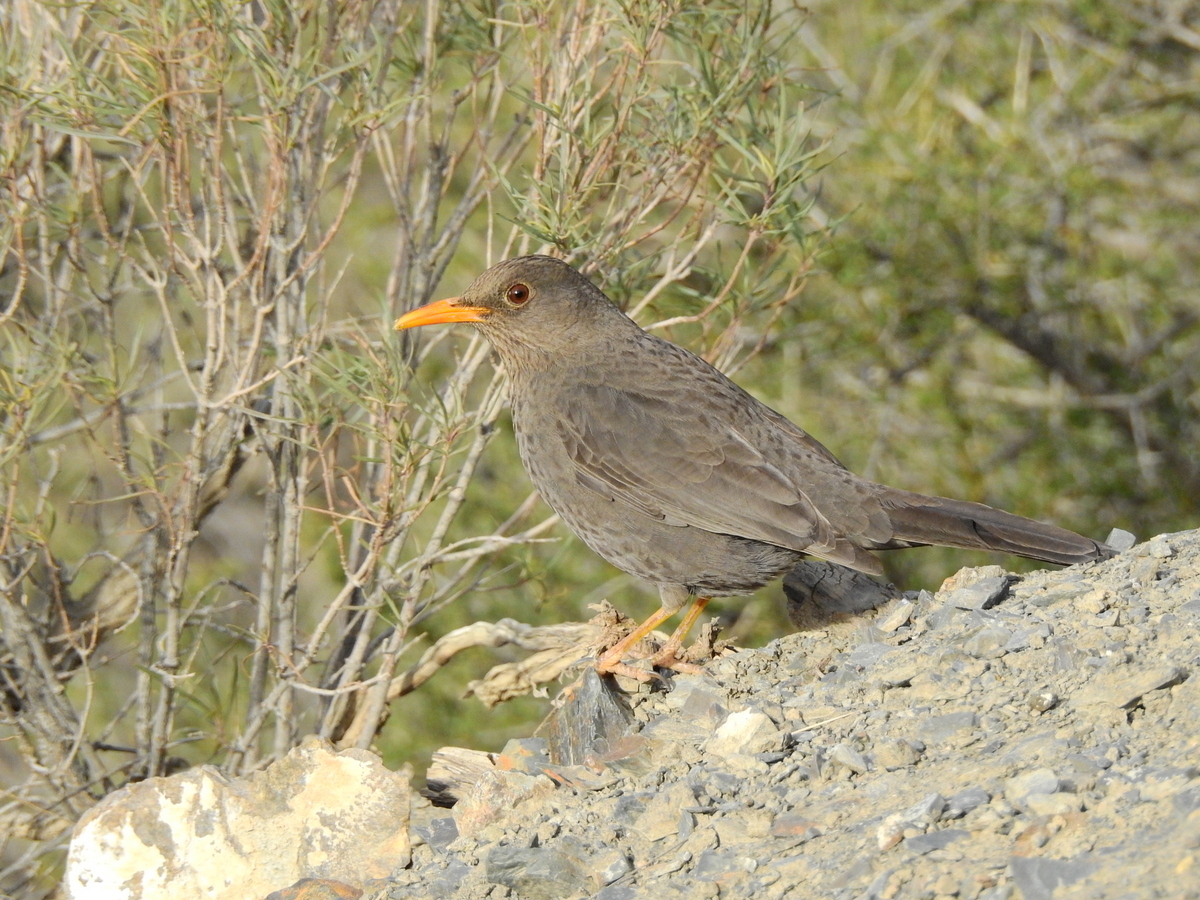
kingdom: Animalia
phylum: Chordata
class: Aves
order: Passeriformes
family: Turdidae
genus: Turdus
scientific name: Turdus chiguanco
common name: Chiguanco thrush
